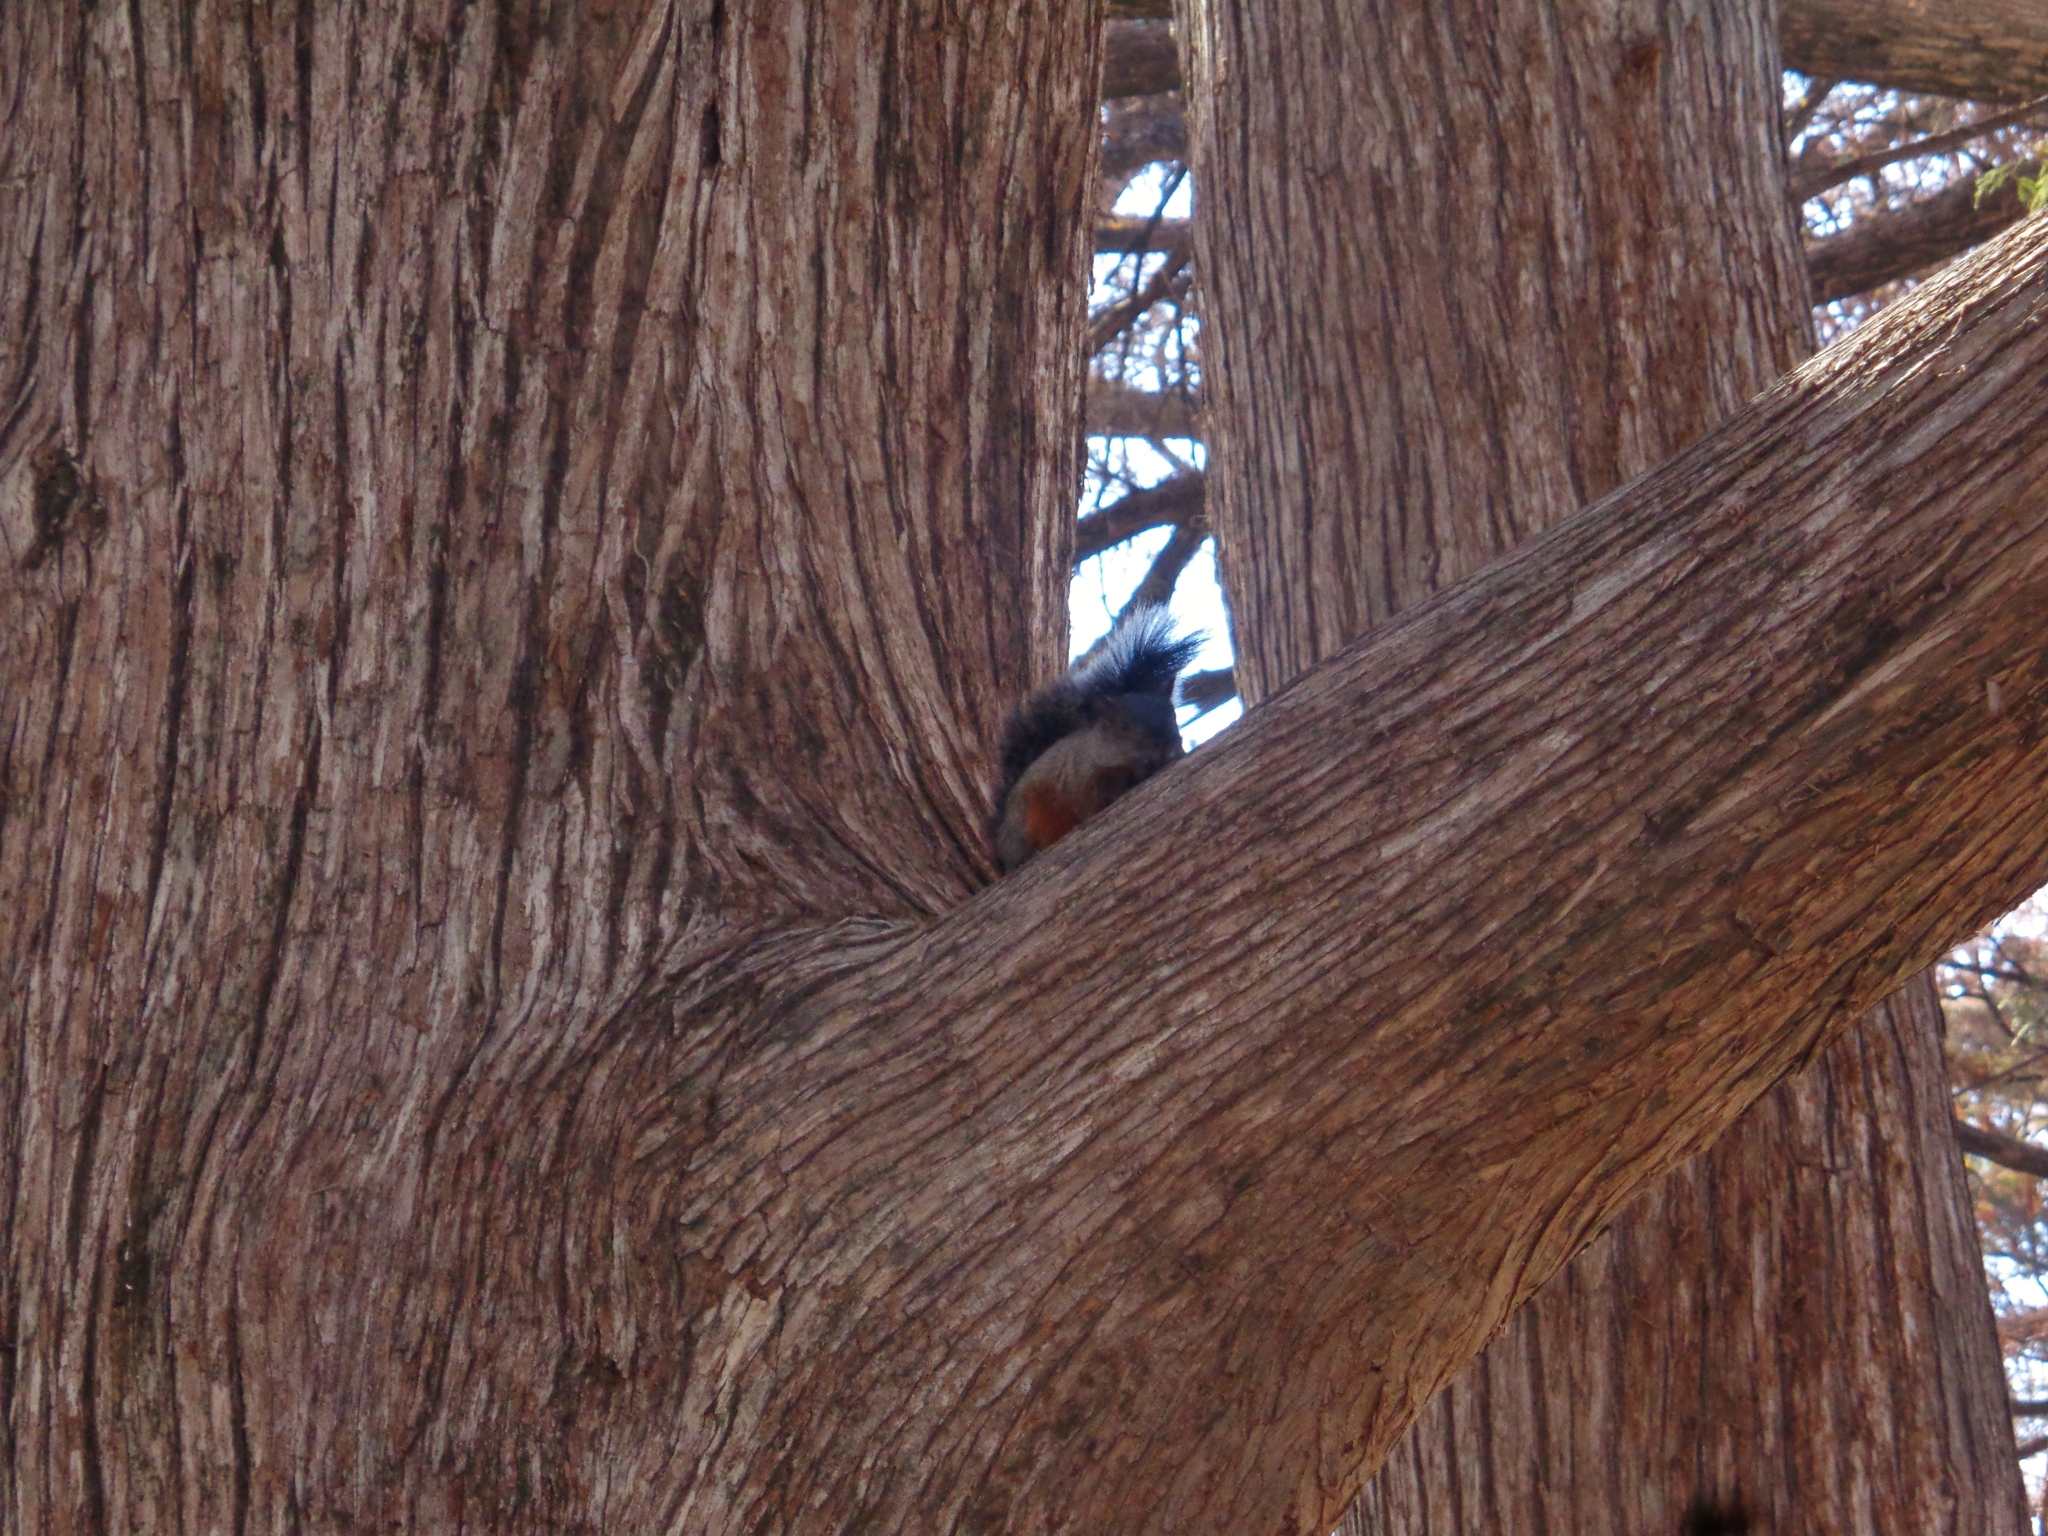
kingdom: Animalia
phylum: Chordata
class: Mammalia
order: Rodentia
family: Sciuridae
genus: Sciurus
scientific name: Sciurus aureogaster
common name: Red-bellied squirrel
